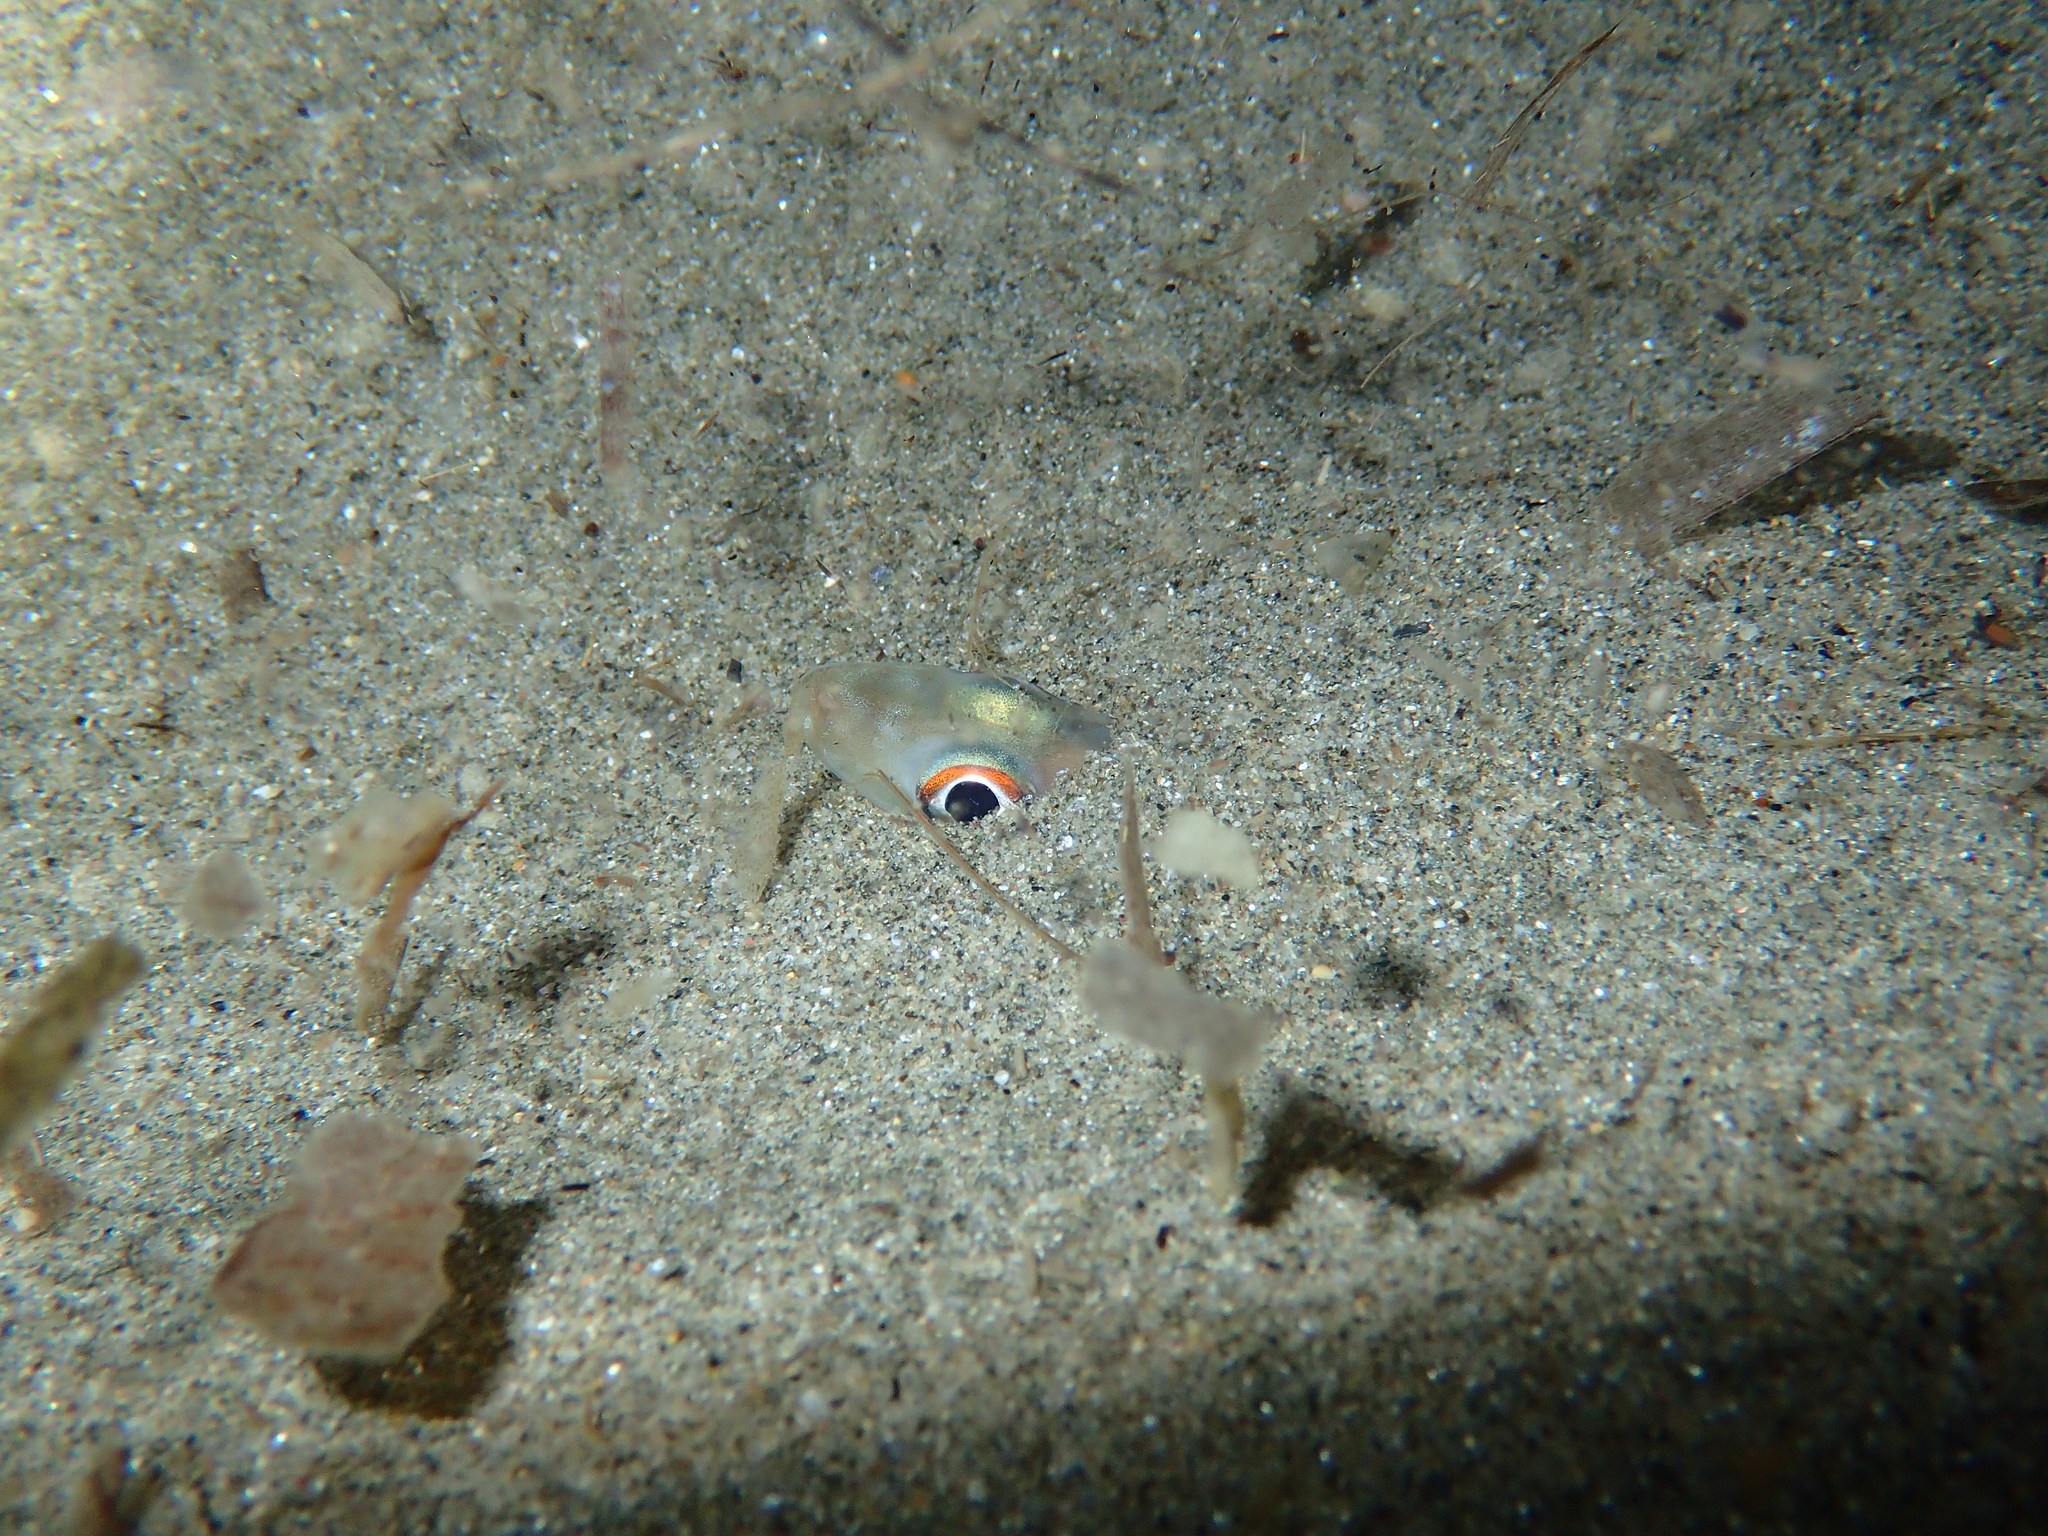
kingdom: Animalia
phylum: Chordata
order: Anguilliformes
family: Congridae
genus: Ariosoma
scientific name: Ariosoma balearicum
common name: Bandtooth conger
